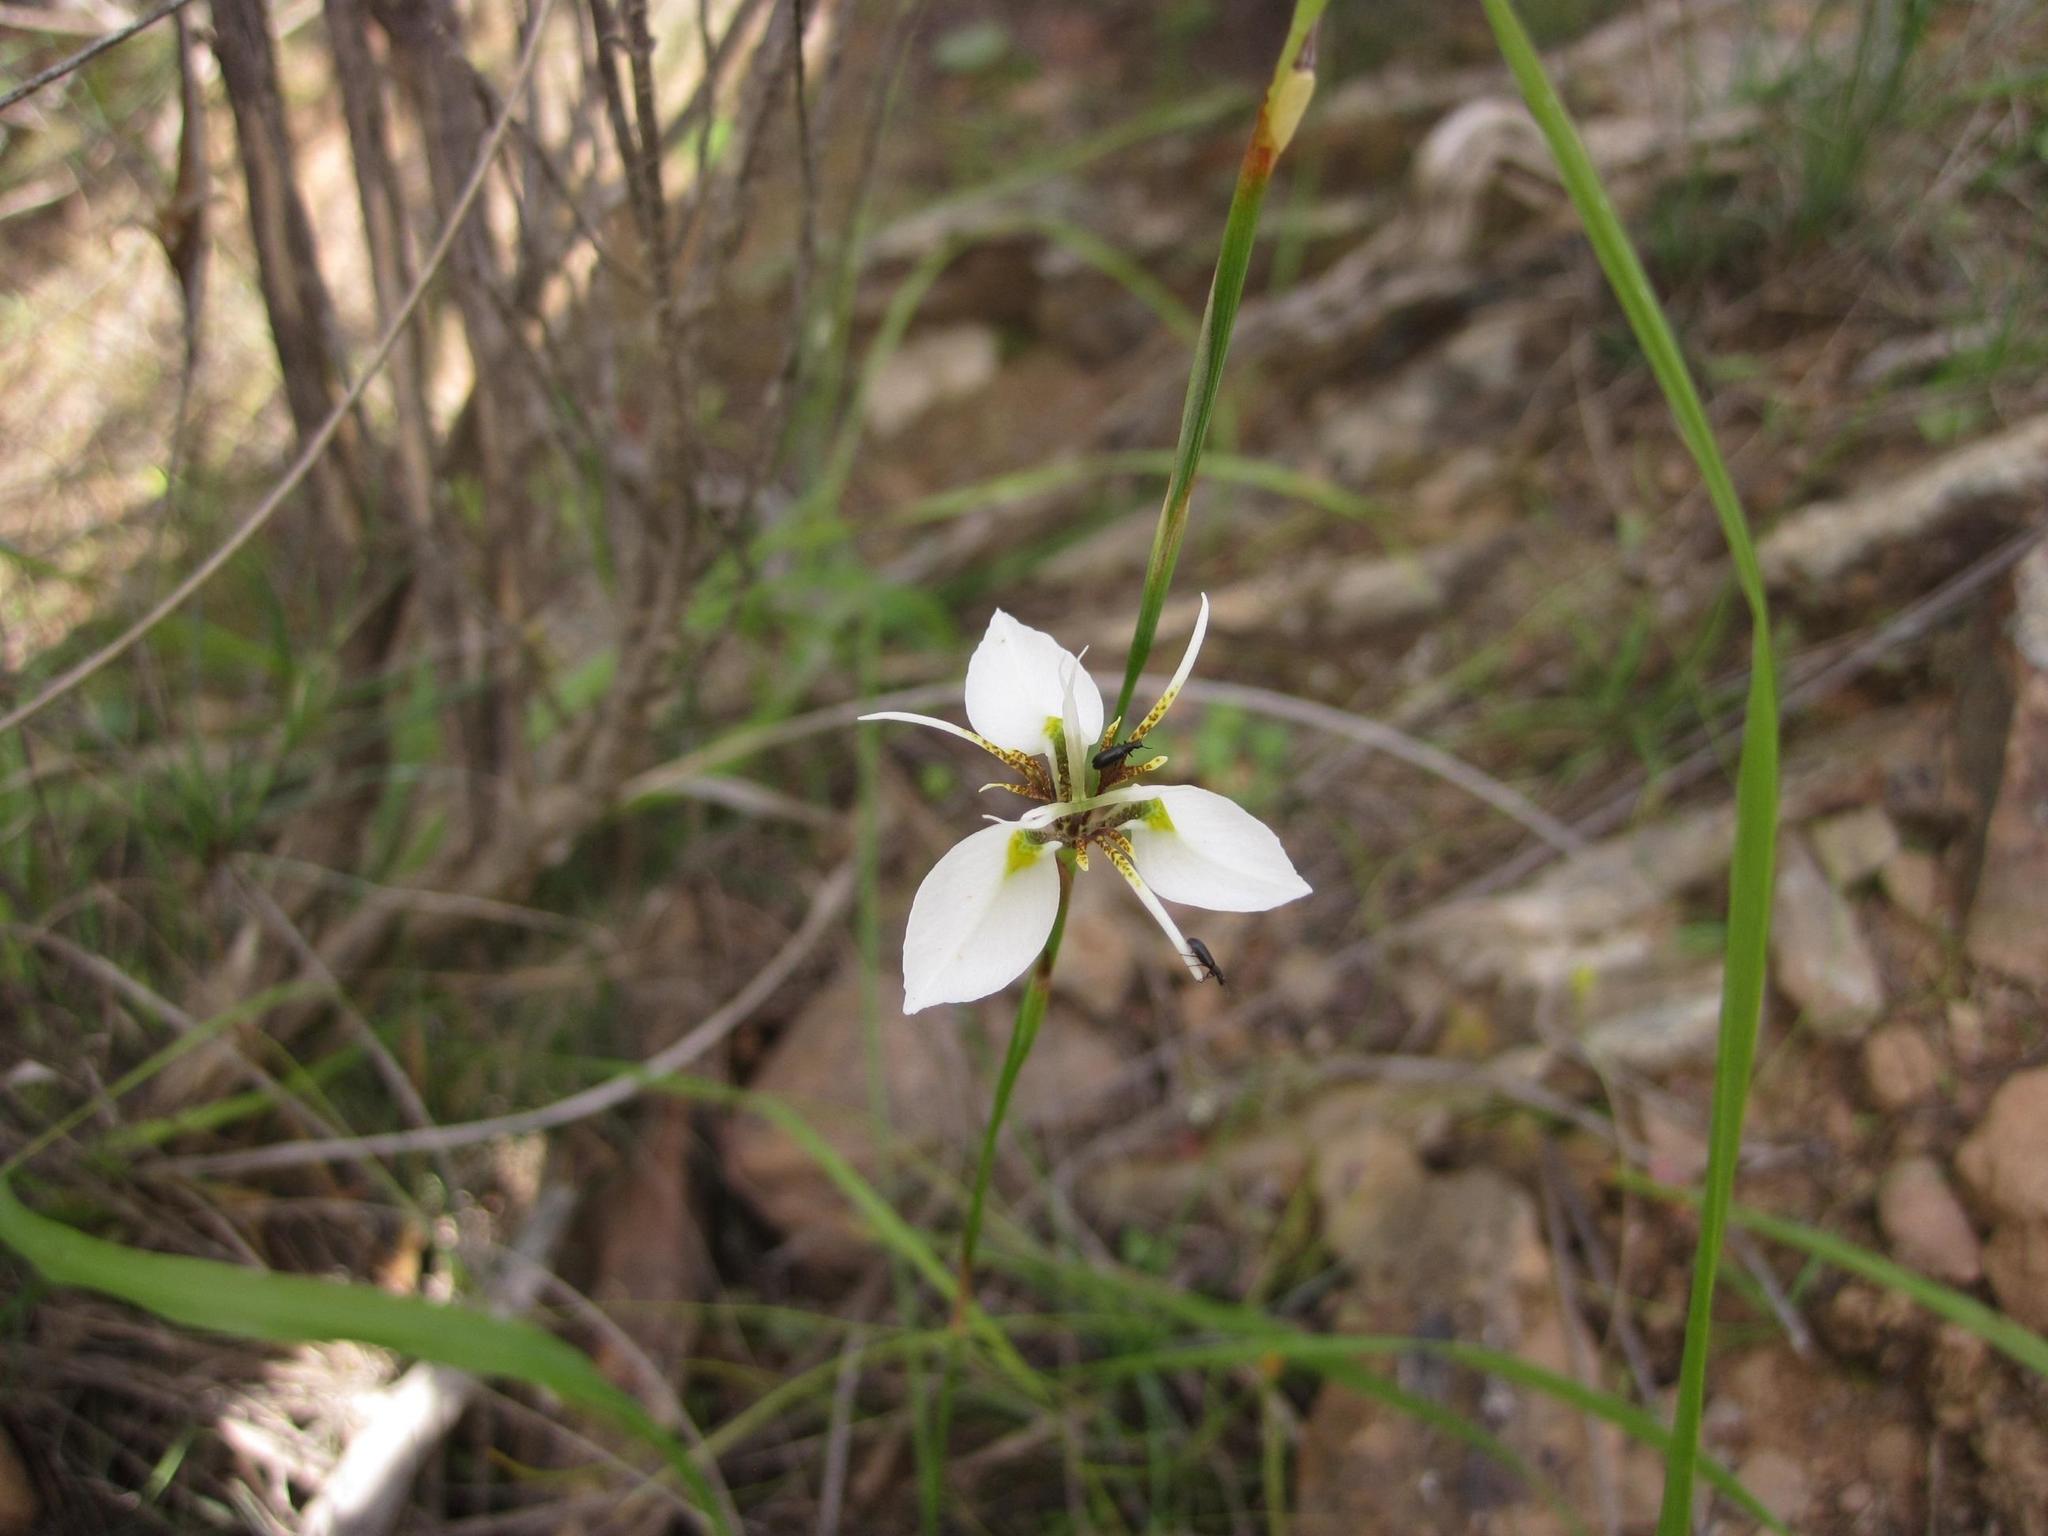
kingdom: Plantae
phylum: Tracheophyta
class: Liliopsida
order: Asparagales
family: Iridaceae
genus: Moraea
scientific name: Moraea unguiculata
